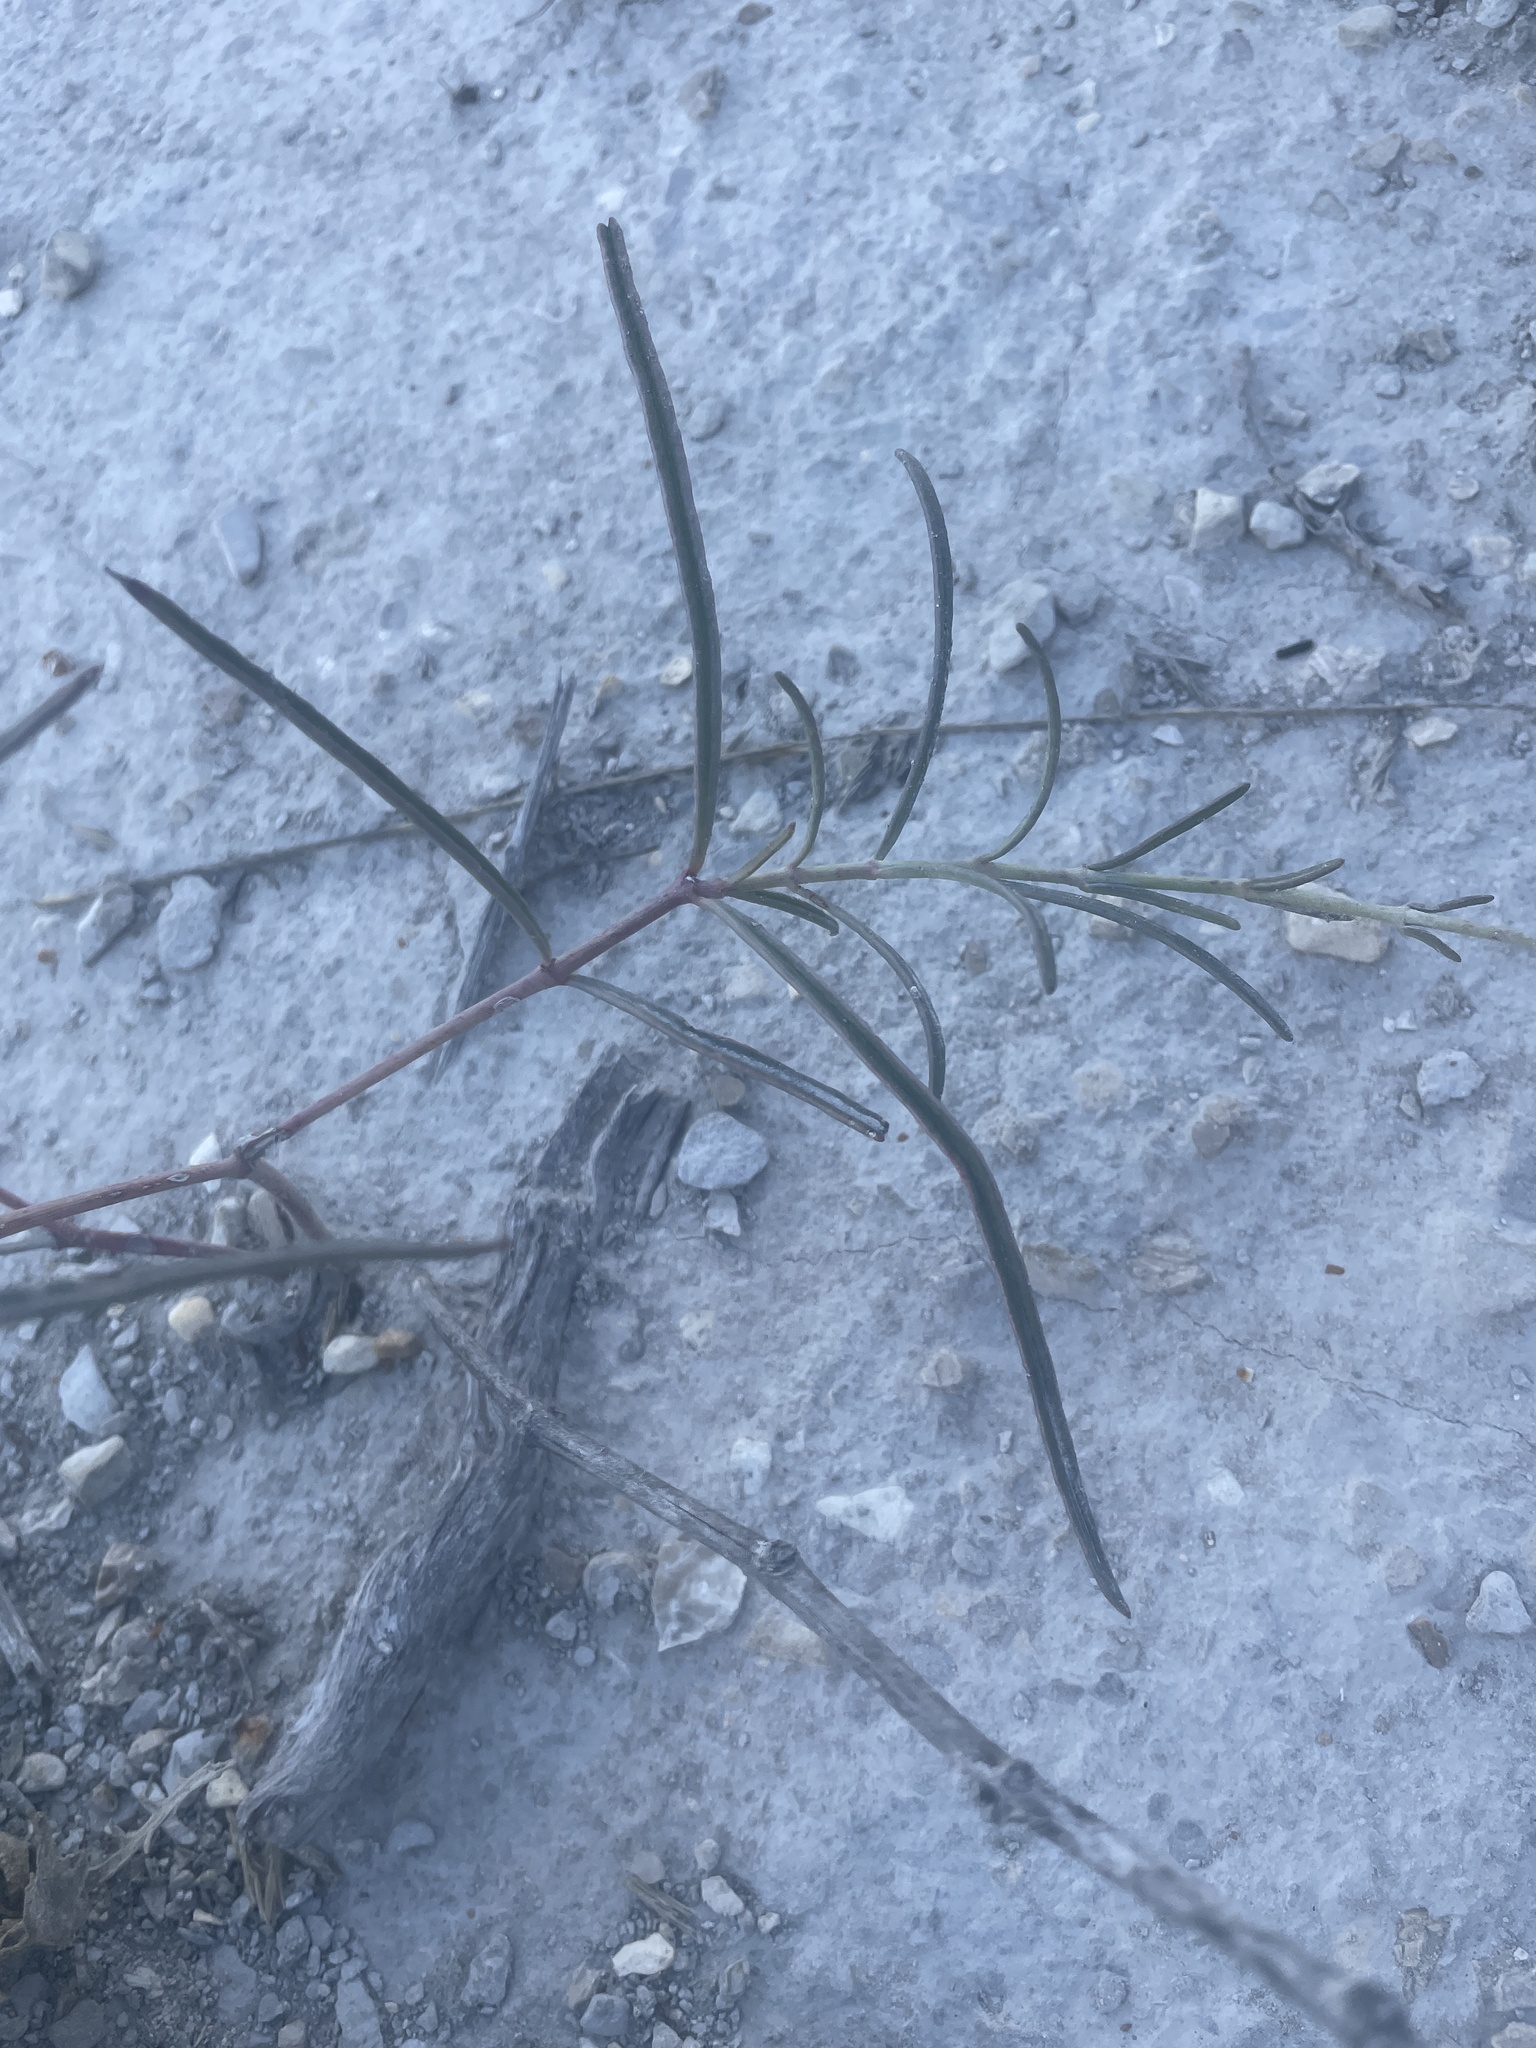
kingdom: Plantae
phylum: Tracheophyta
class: Magnoliopsida
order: Caryophyllales
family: Nyctaginaceae
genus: Mirabilis
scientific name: Mirabilis linearis
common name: Linear-leaved four-o'clock
